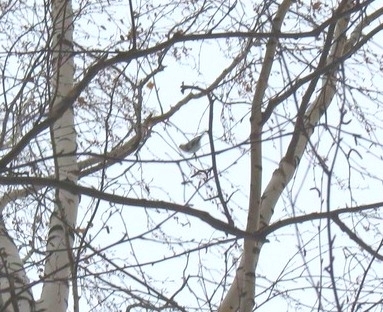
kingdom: Animalia
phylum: Chordata
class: Aves
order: Passeriformes
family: Paridae
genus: Cyanistes
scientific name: Cyanistes cyanus
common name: Azure tit
